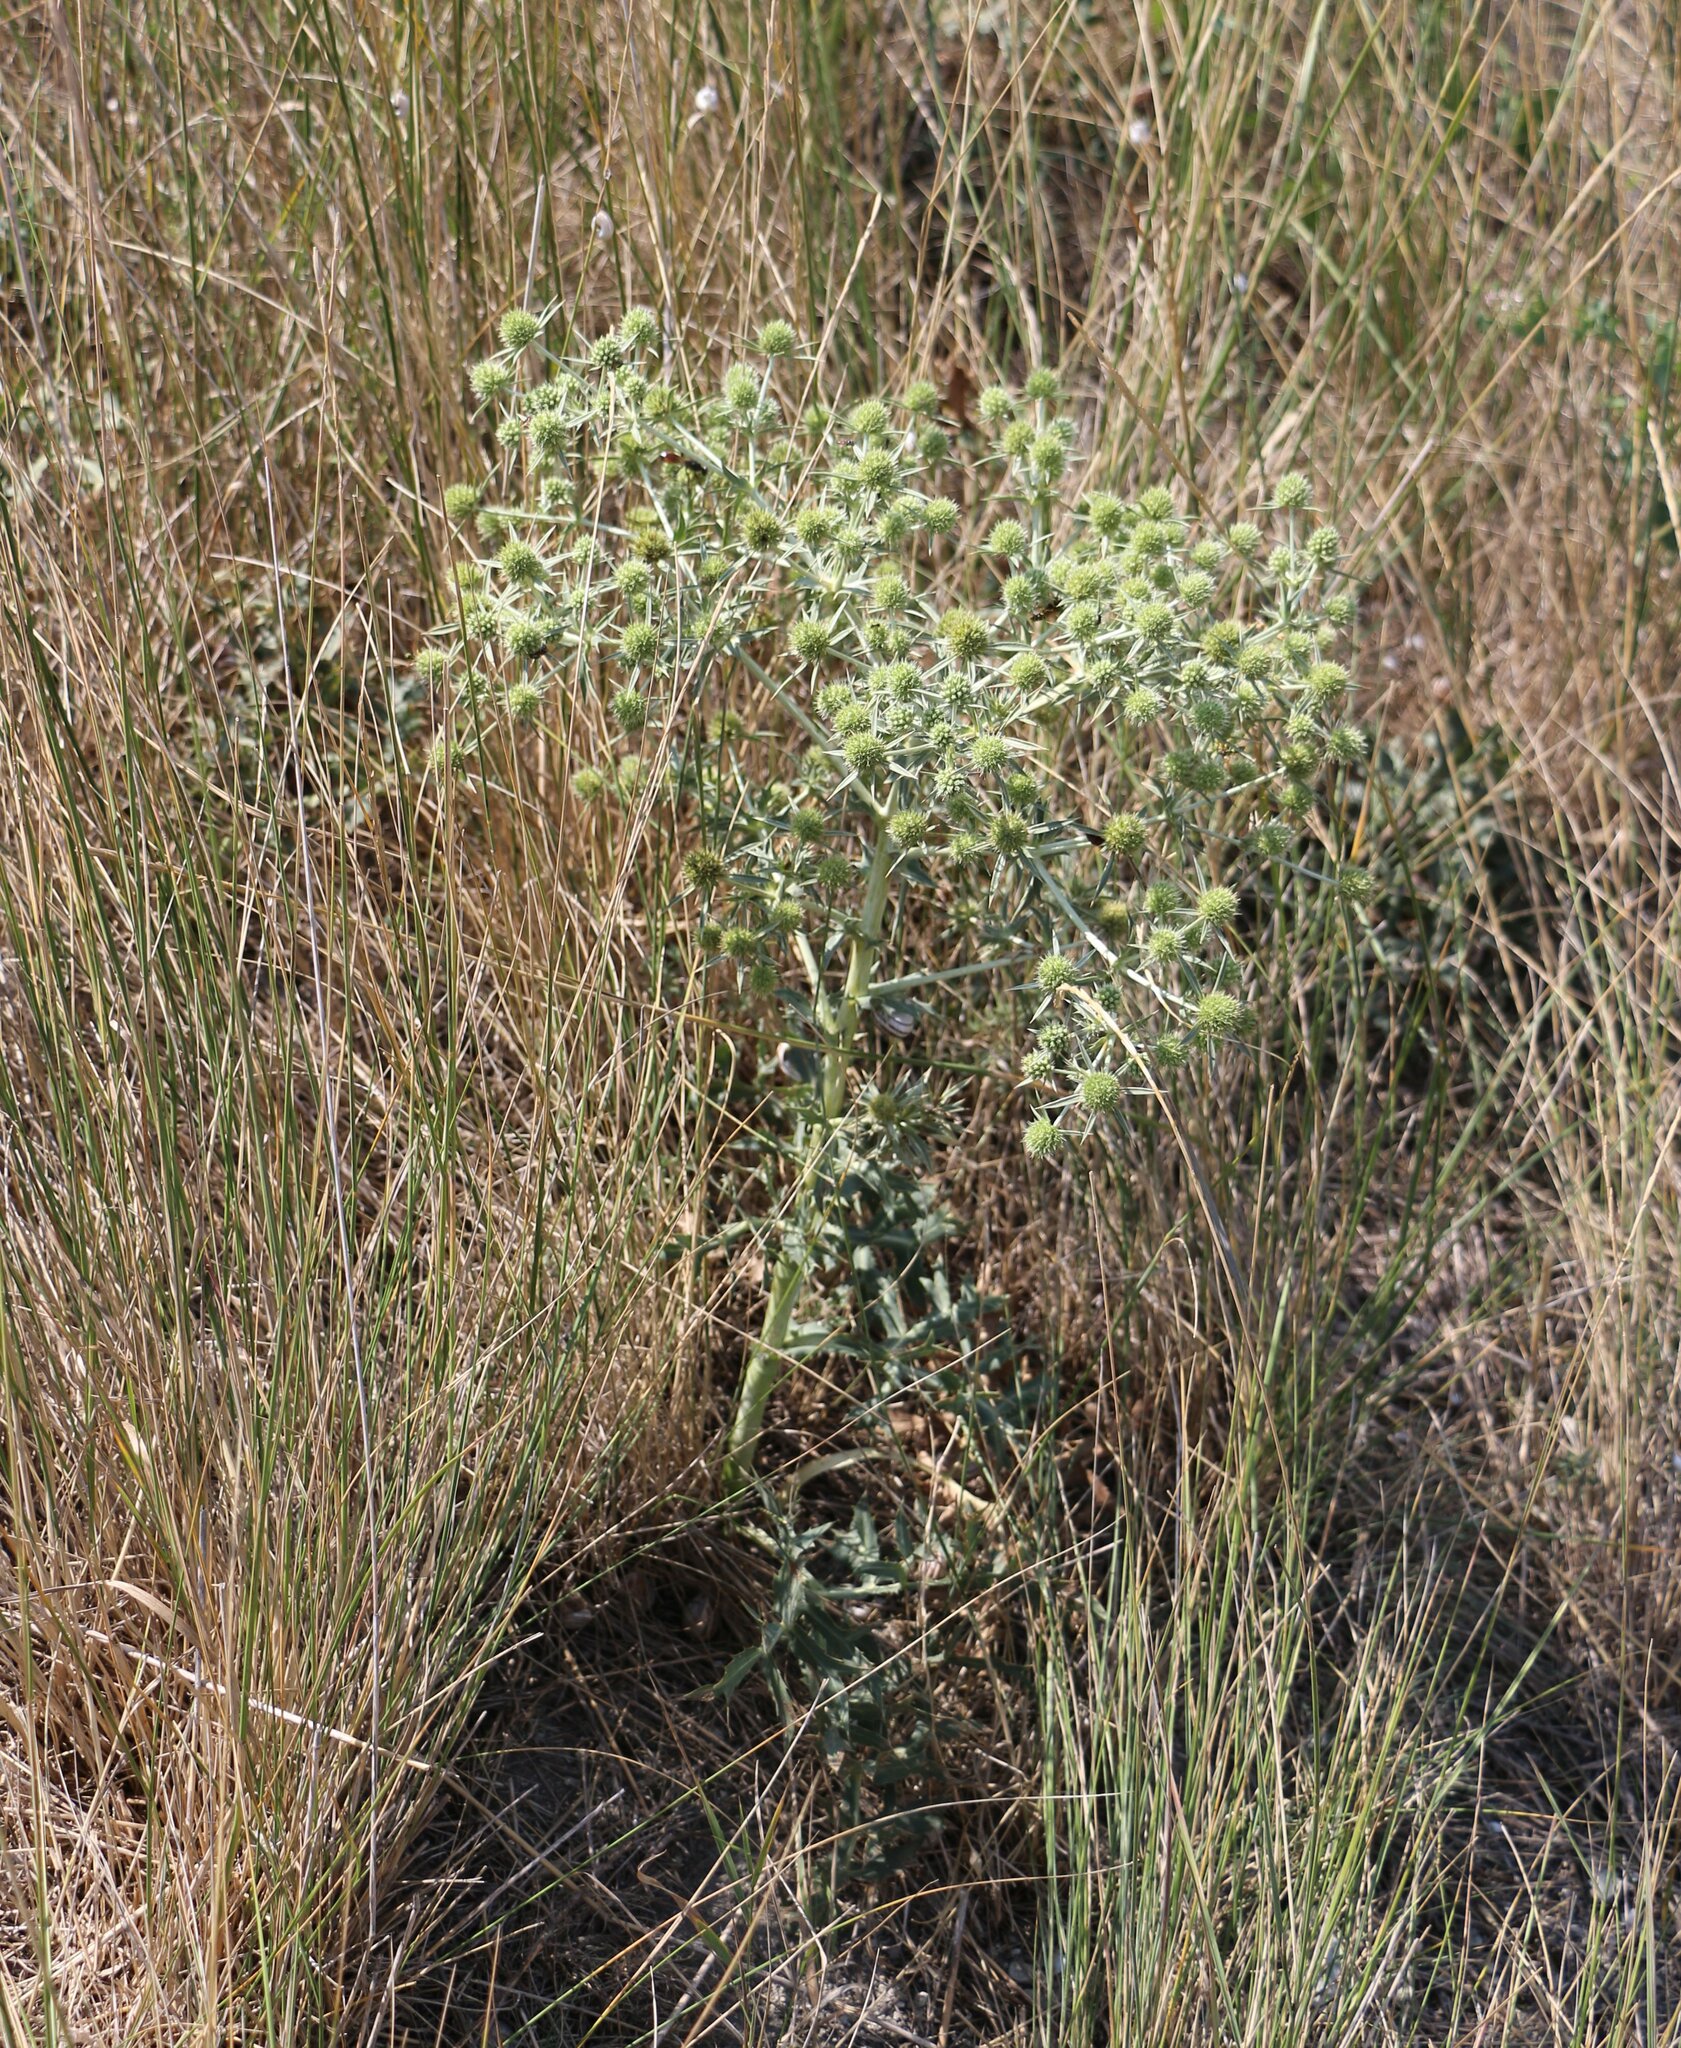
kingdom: Plantae
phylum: Tracheophyta
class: Magnoliopsida
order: Apiales
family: Apiaceae
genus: Eryngium
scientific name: Eryngium campestre
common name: Field eryngo
